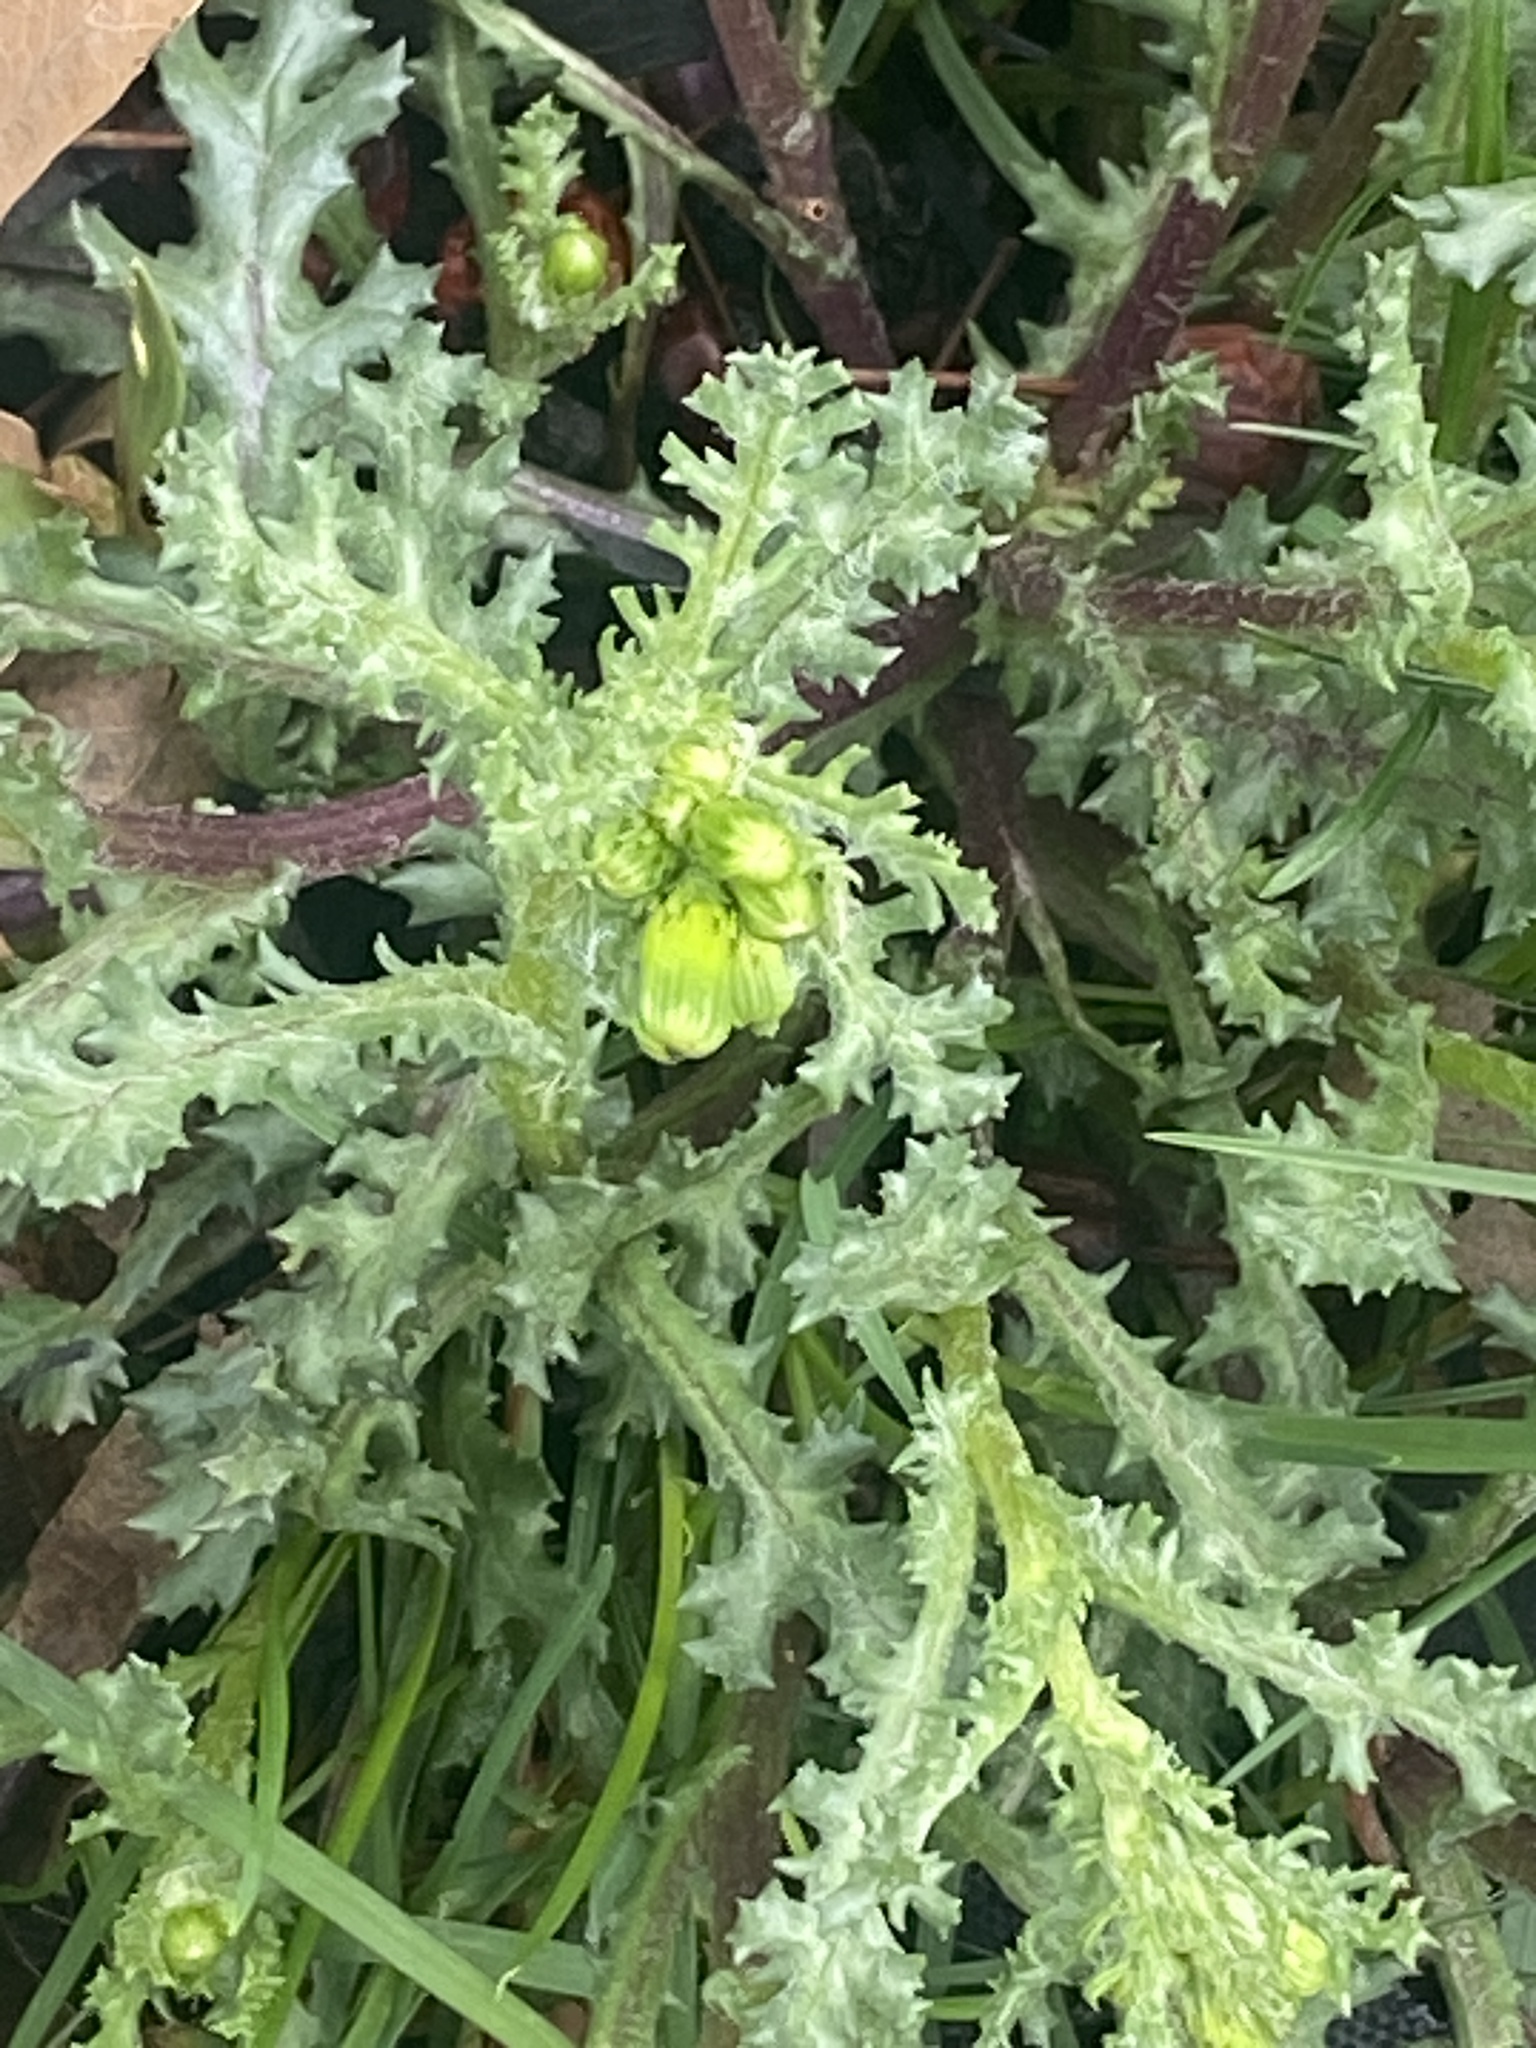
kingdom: Plantae
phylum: Tracheophyta
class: Magnoliopsida
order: Asterales
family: Asteraceae
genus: Senecio
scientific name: Senecio vulgaris
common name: Old-man-in-the-spring
